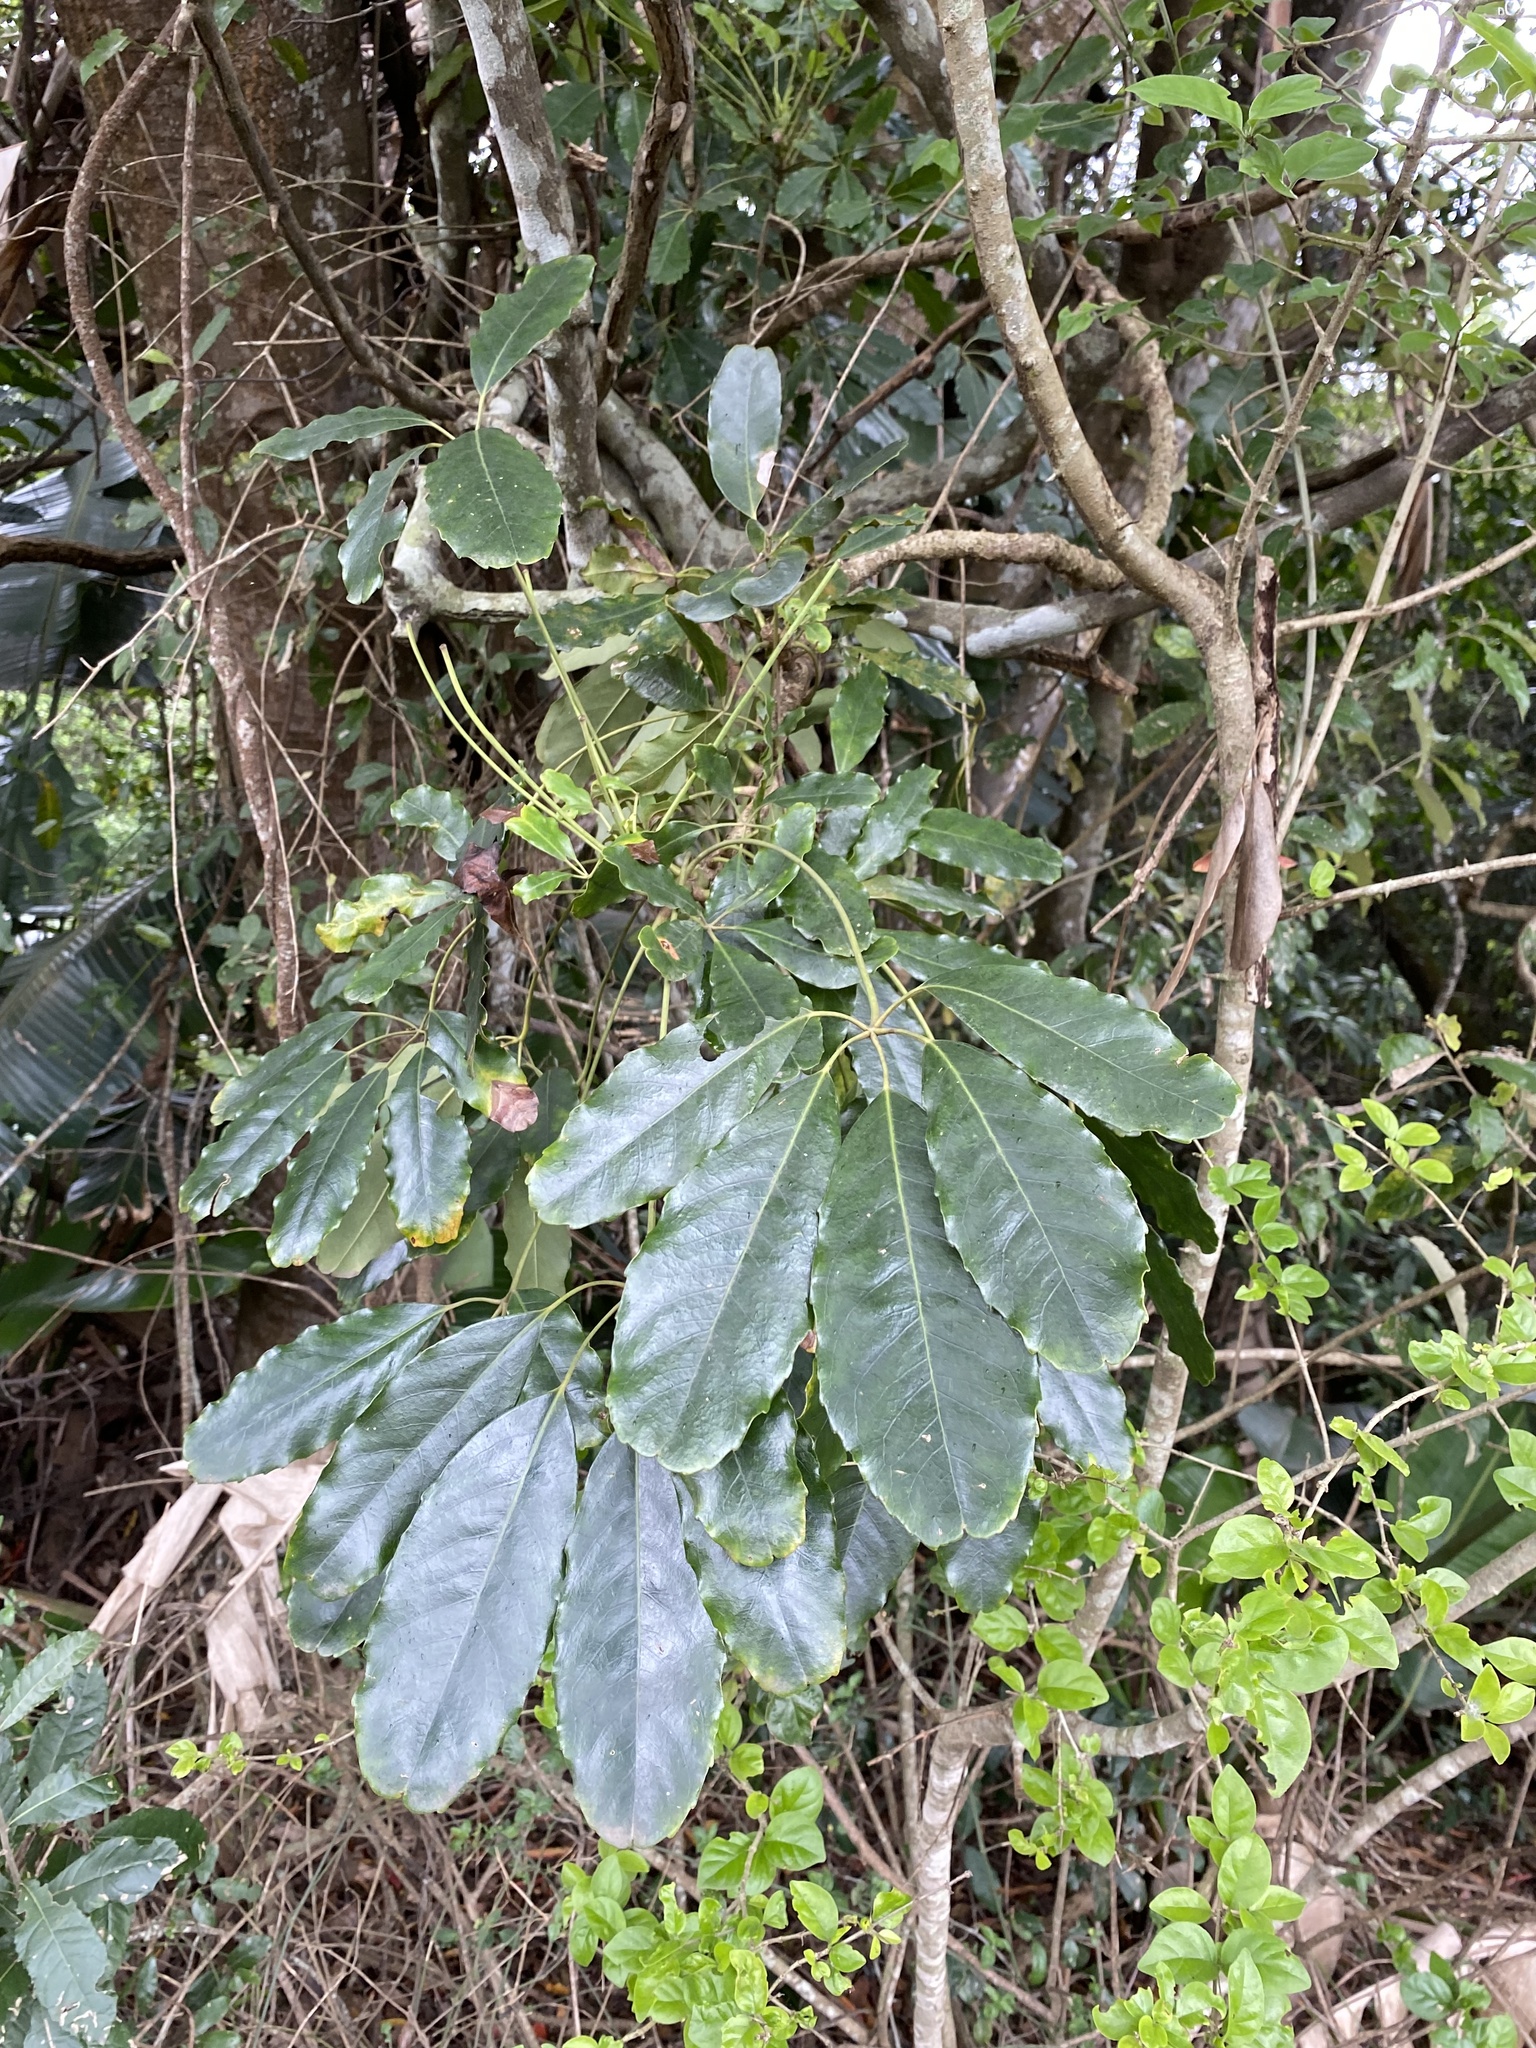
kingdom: Plantae
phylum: Tracheophyta
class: Magnoliopsida
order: Apiales
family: Araliaceae
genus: Neocussonia
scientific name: Neocussonia umbellifera
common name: False cabbage tree
